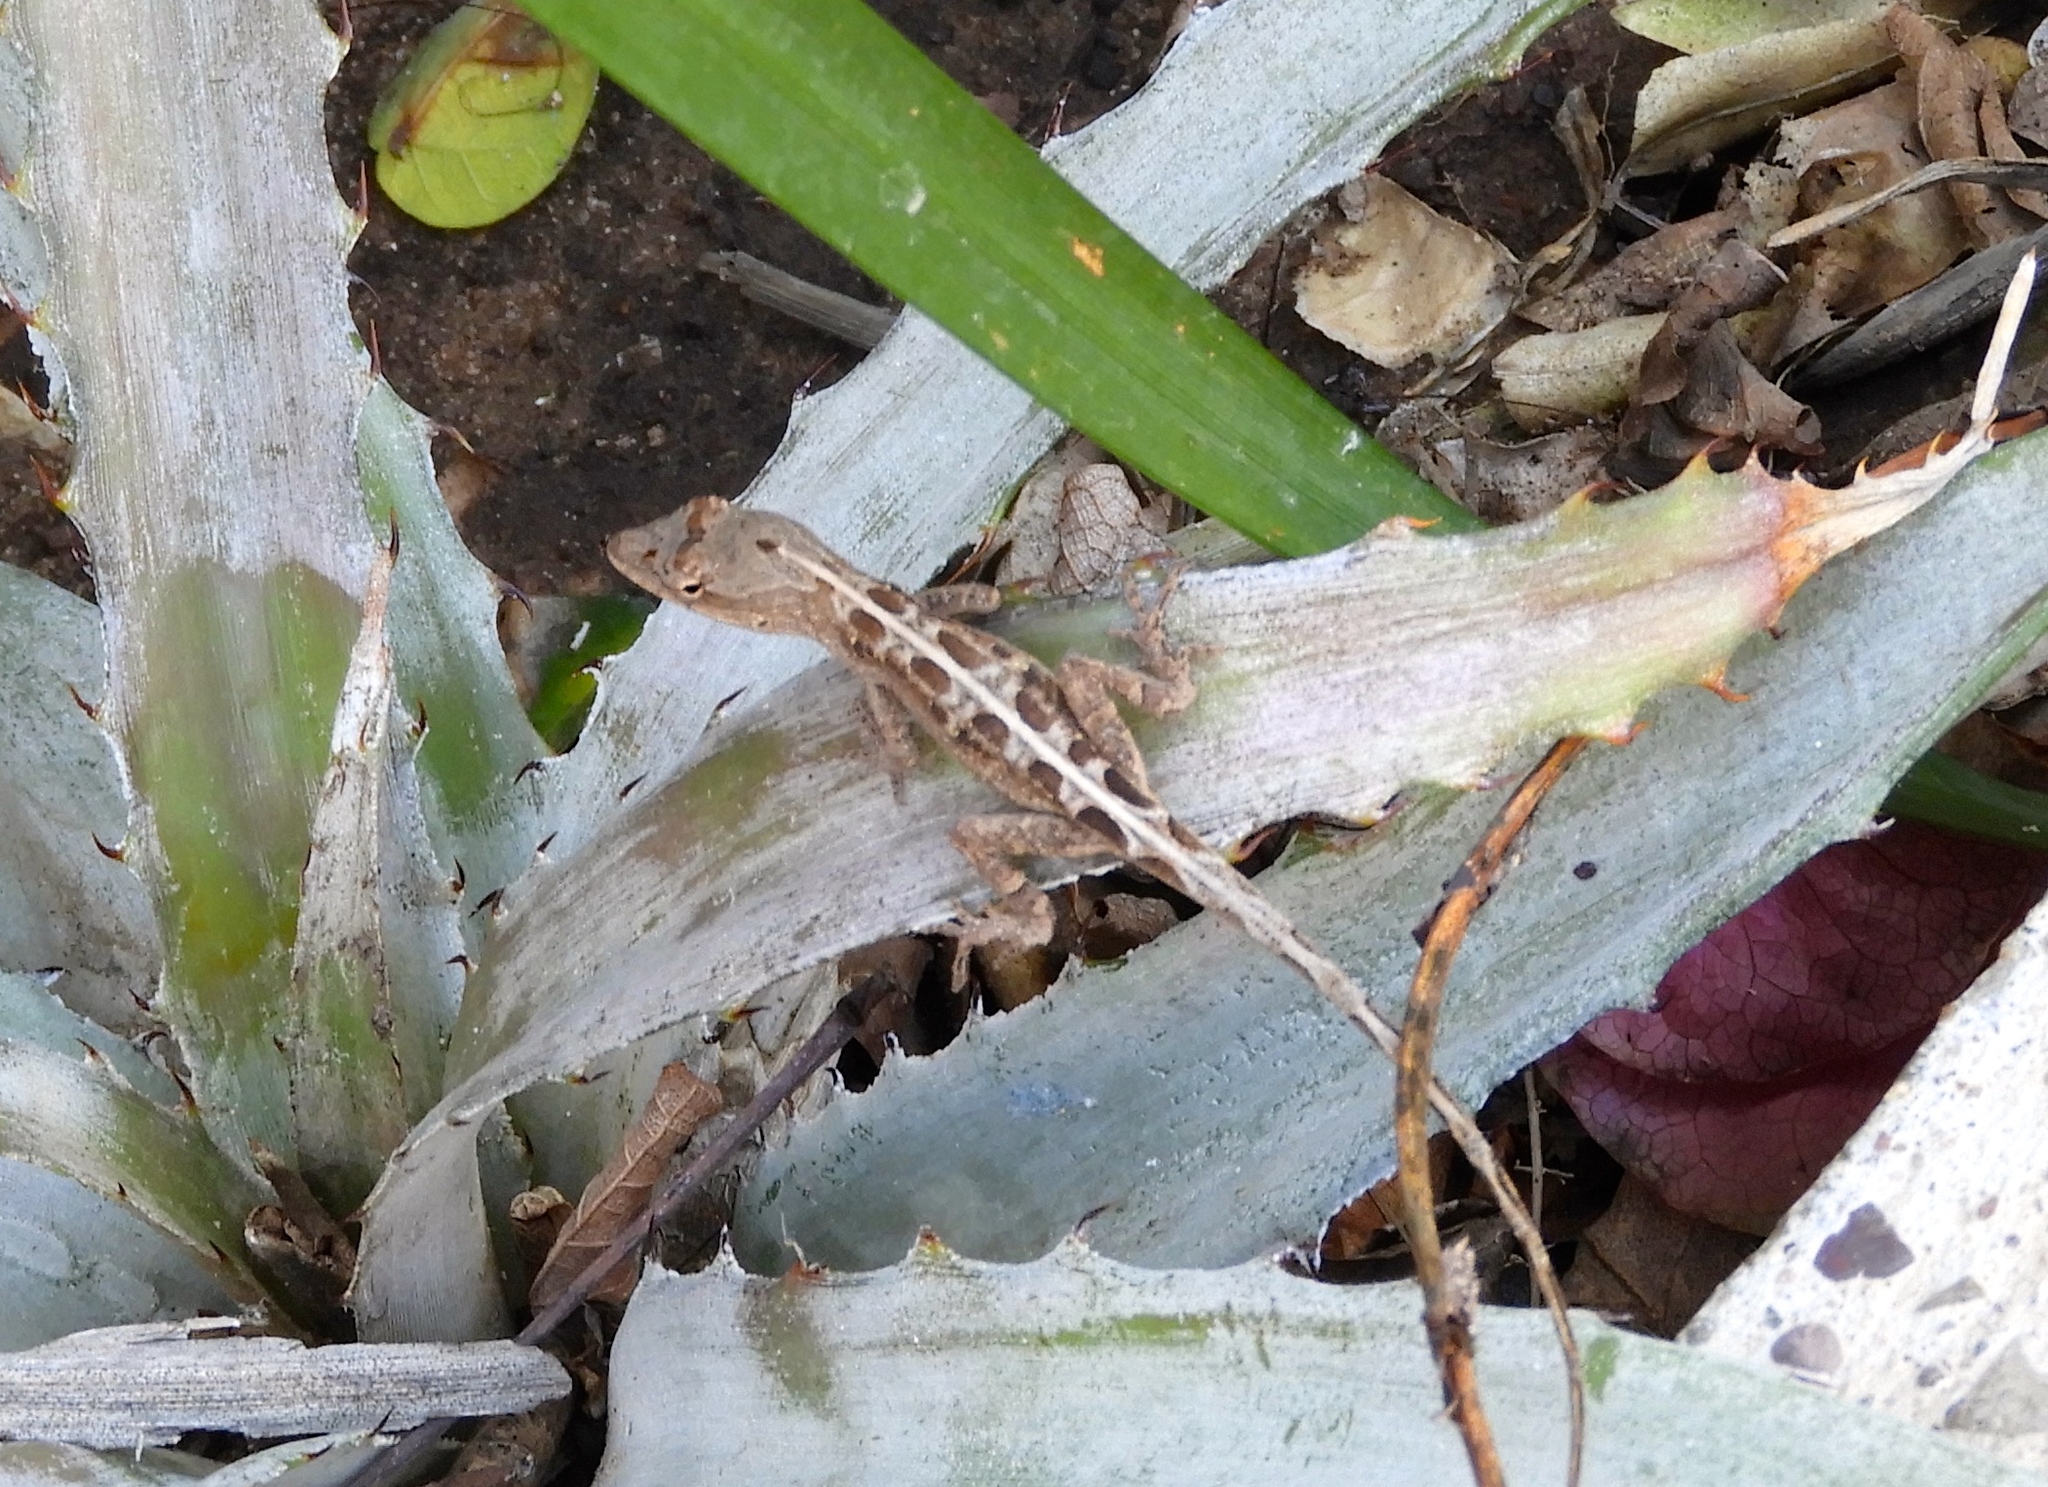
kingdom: Animalia
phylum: Chordata
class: Squamata
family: Dactyloidae
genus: Anolis
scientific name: Anolis nebulosus
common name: Clouded anole
